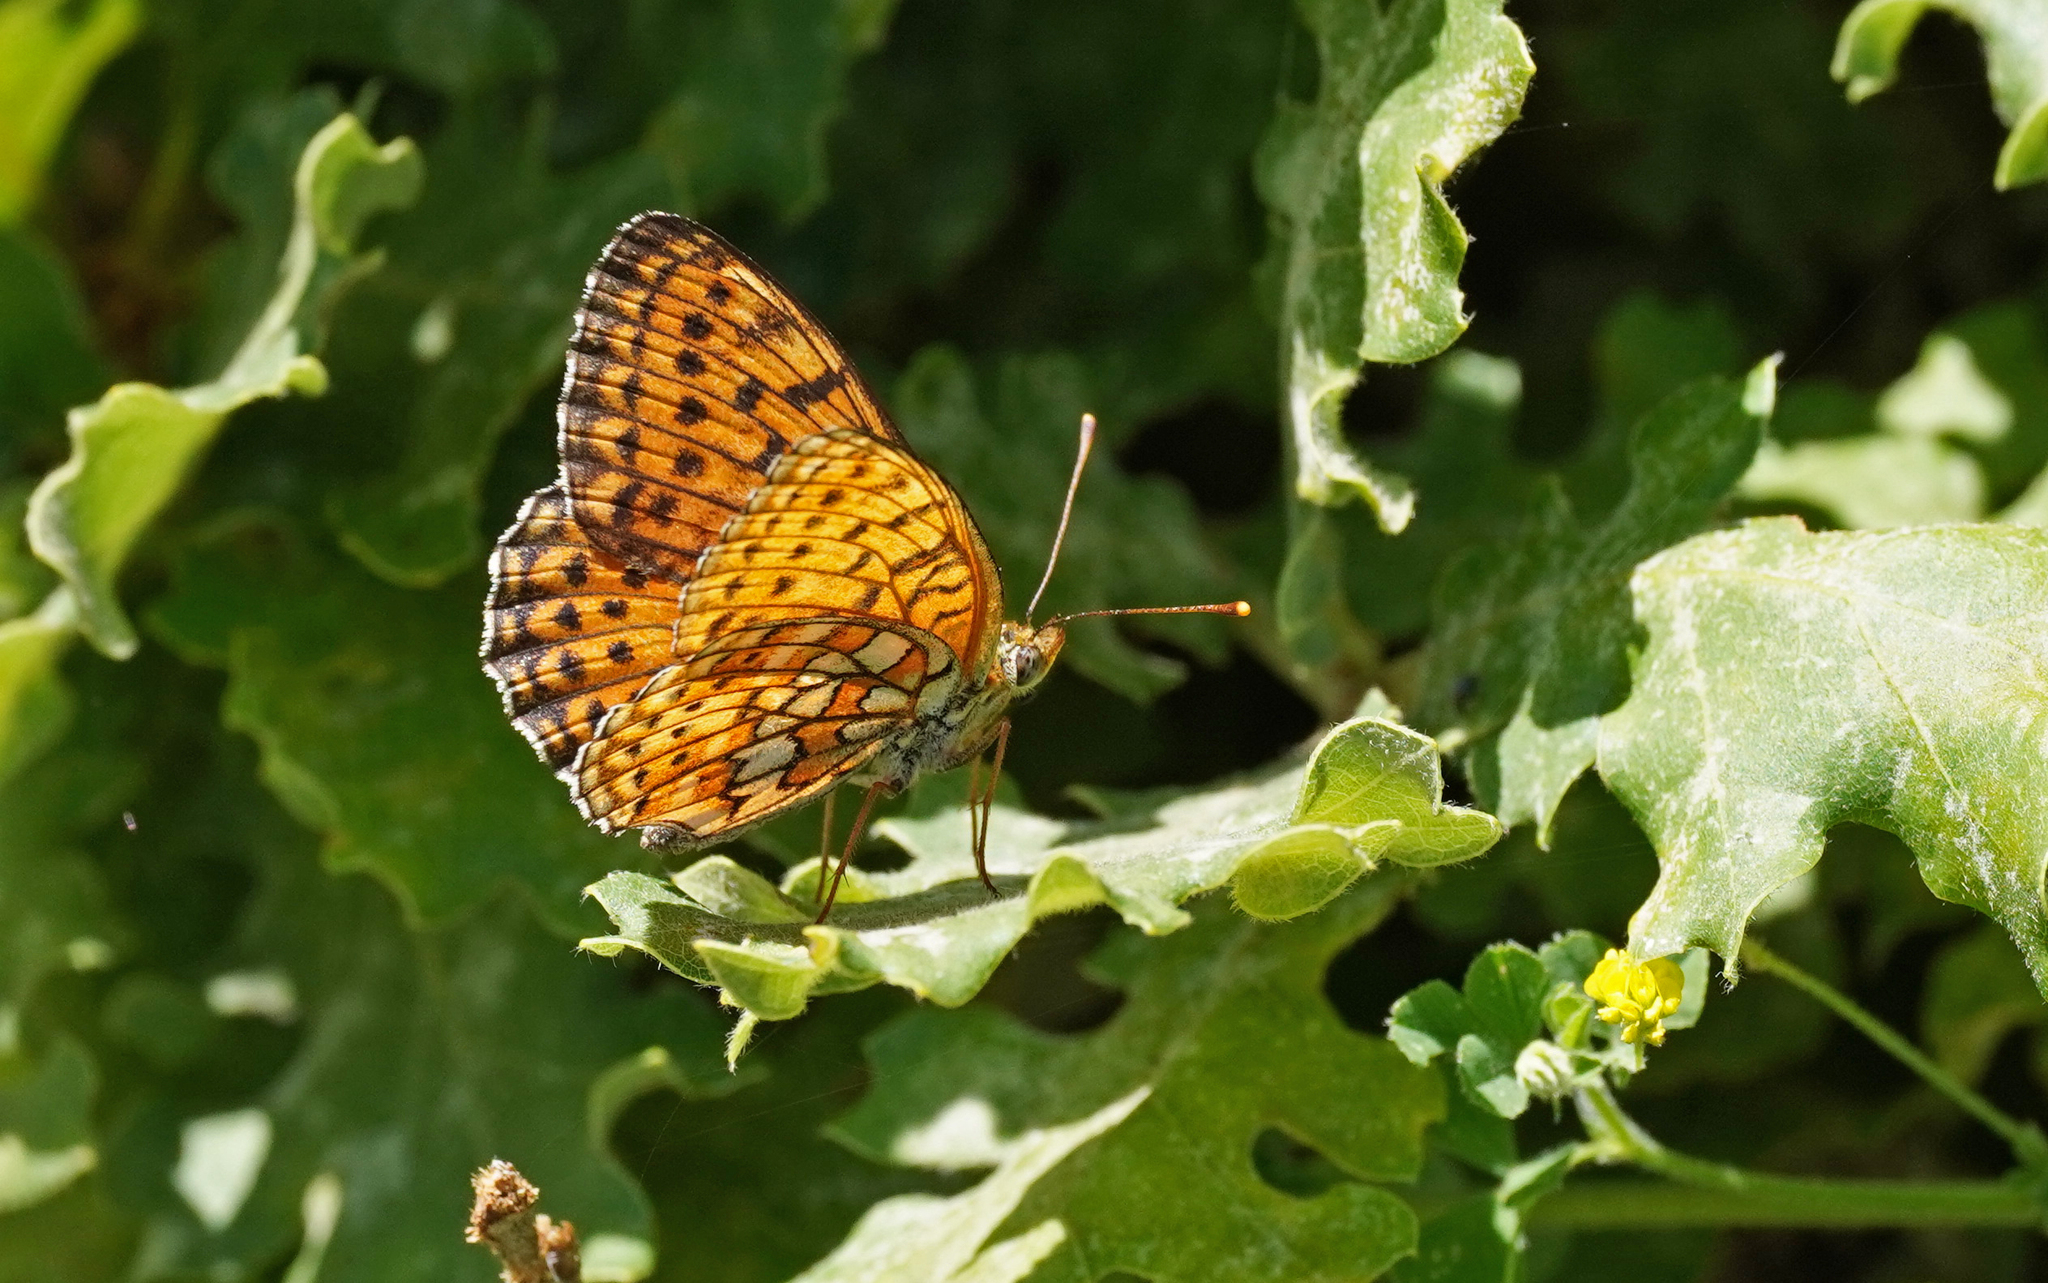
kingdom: Animalia
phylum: Arthropoda
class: Insecta
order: Lepidoptera
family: Nymphalidae
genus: Brenthis
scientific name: Brenthis hecate
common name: Twin-spot fritillary
